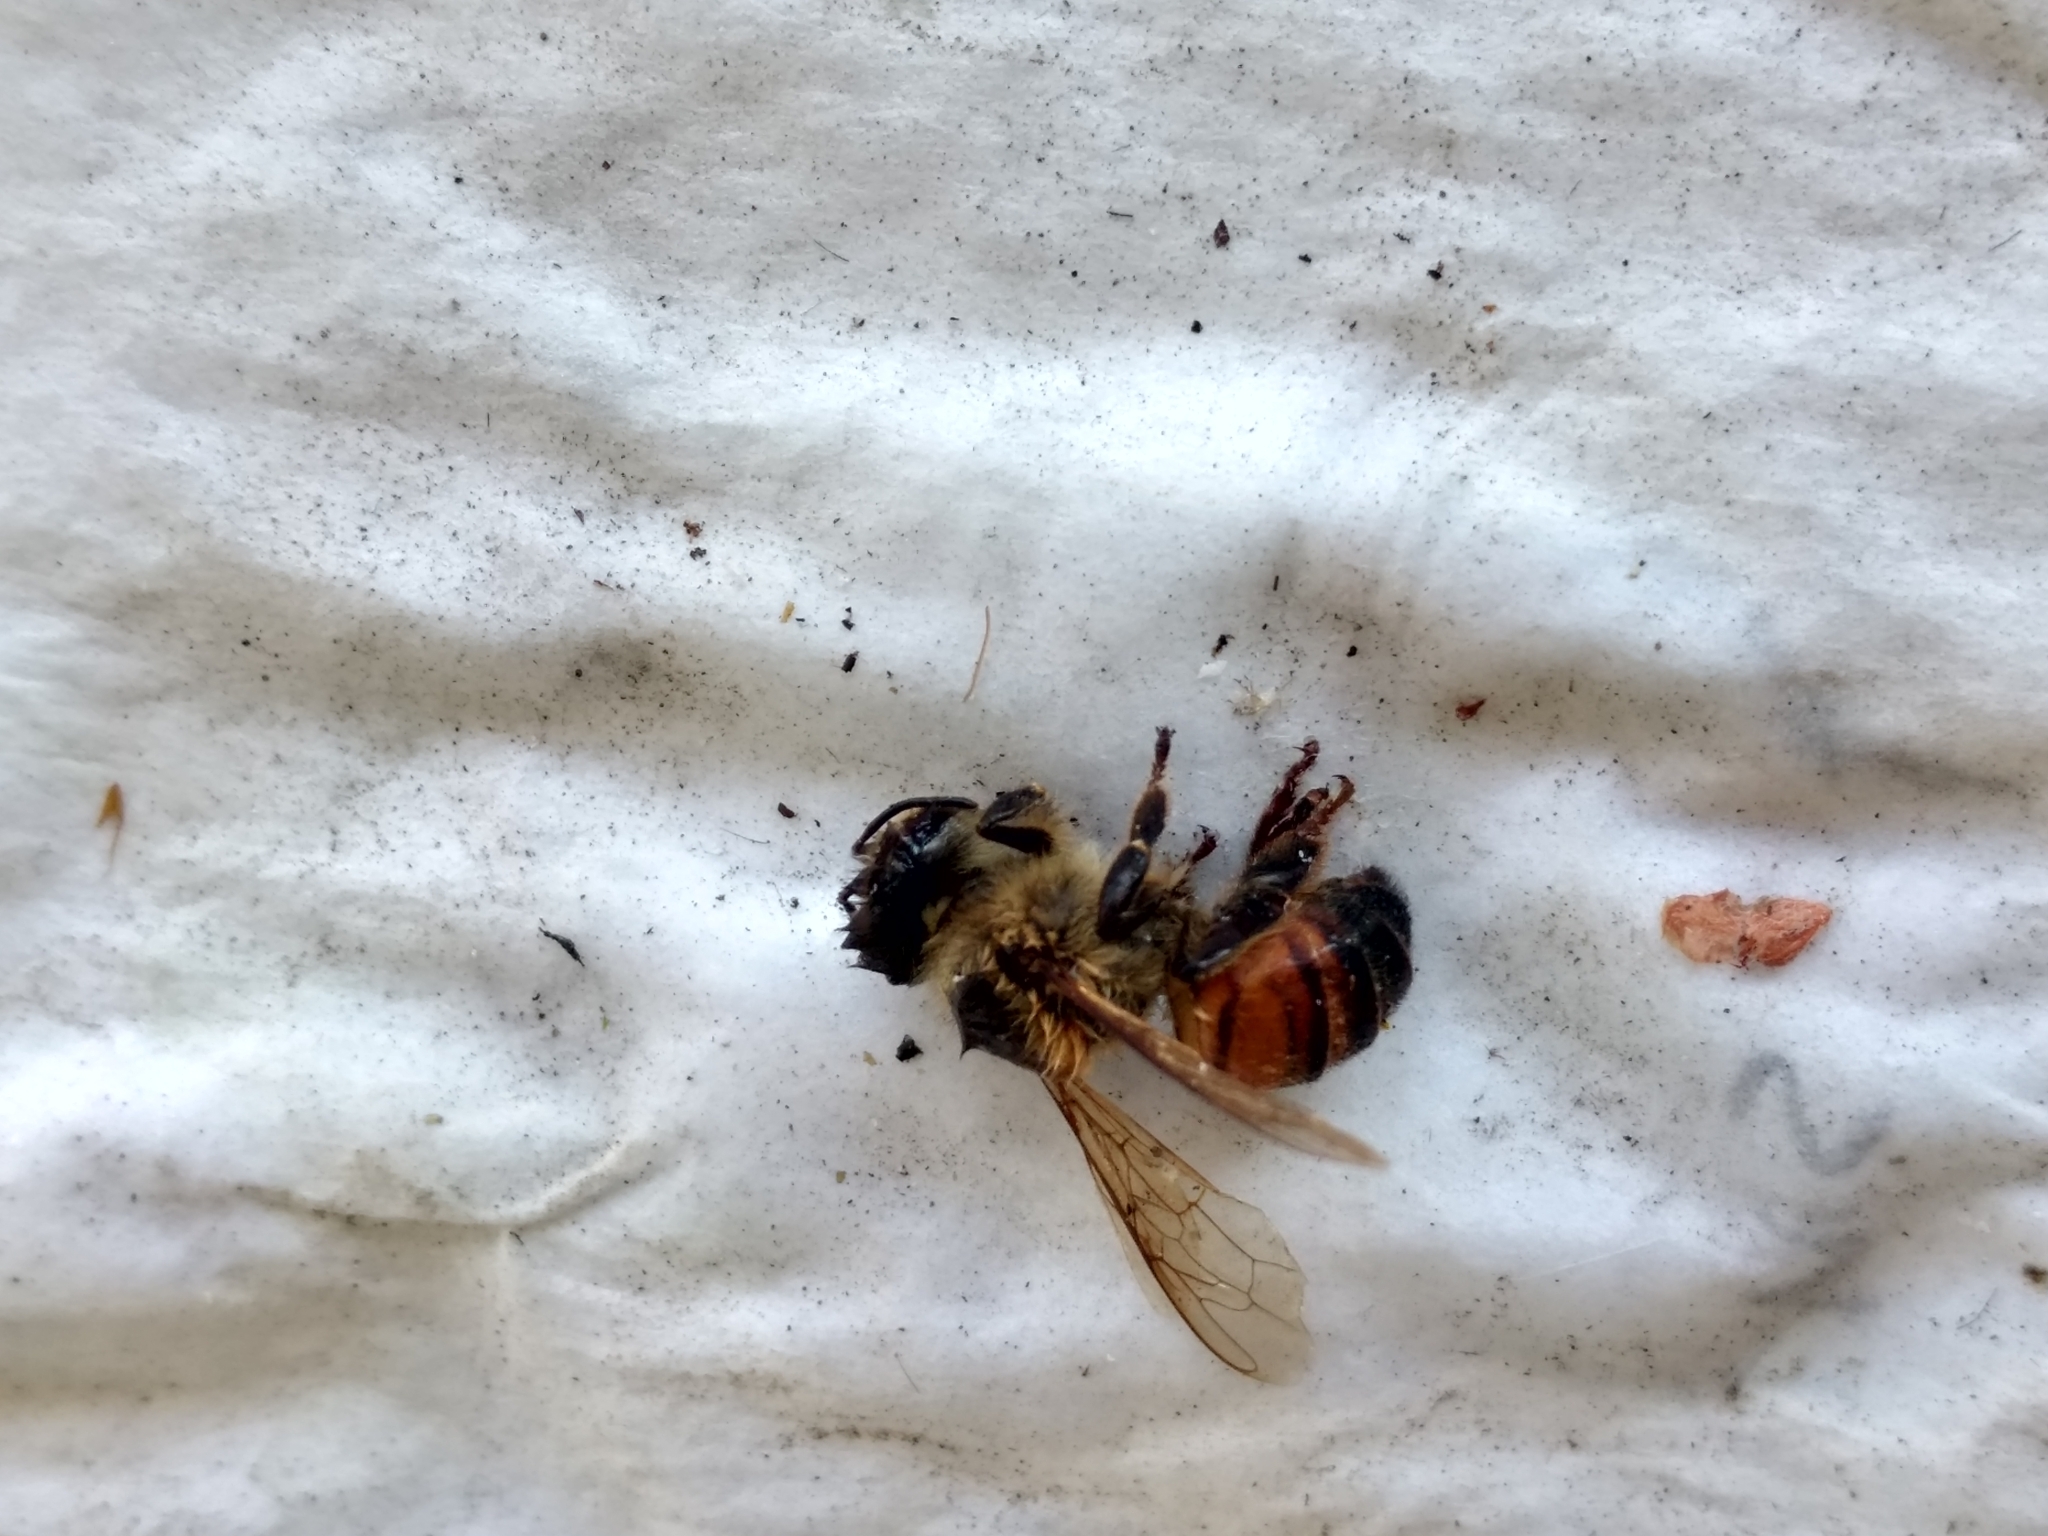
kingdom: Animalia
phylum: Arthropoda
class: Insecta
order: Hymenoptera
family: Apidae
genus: Apis
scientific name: Apis mellifera
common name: Honey bee
